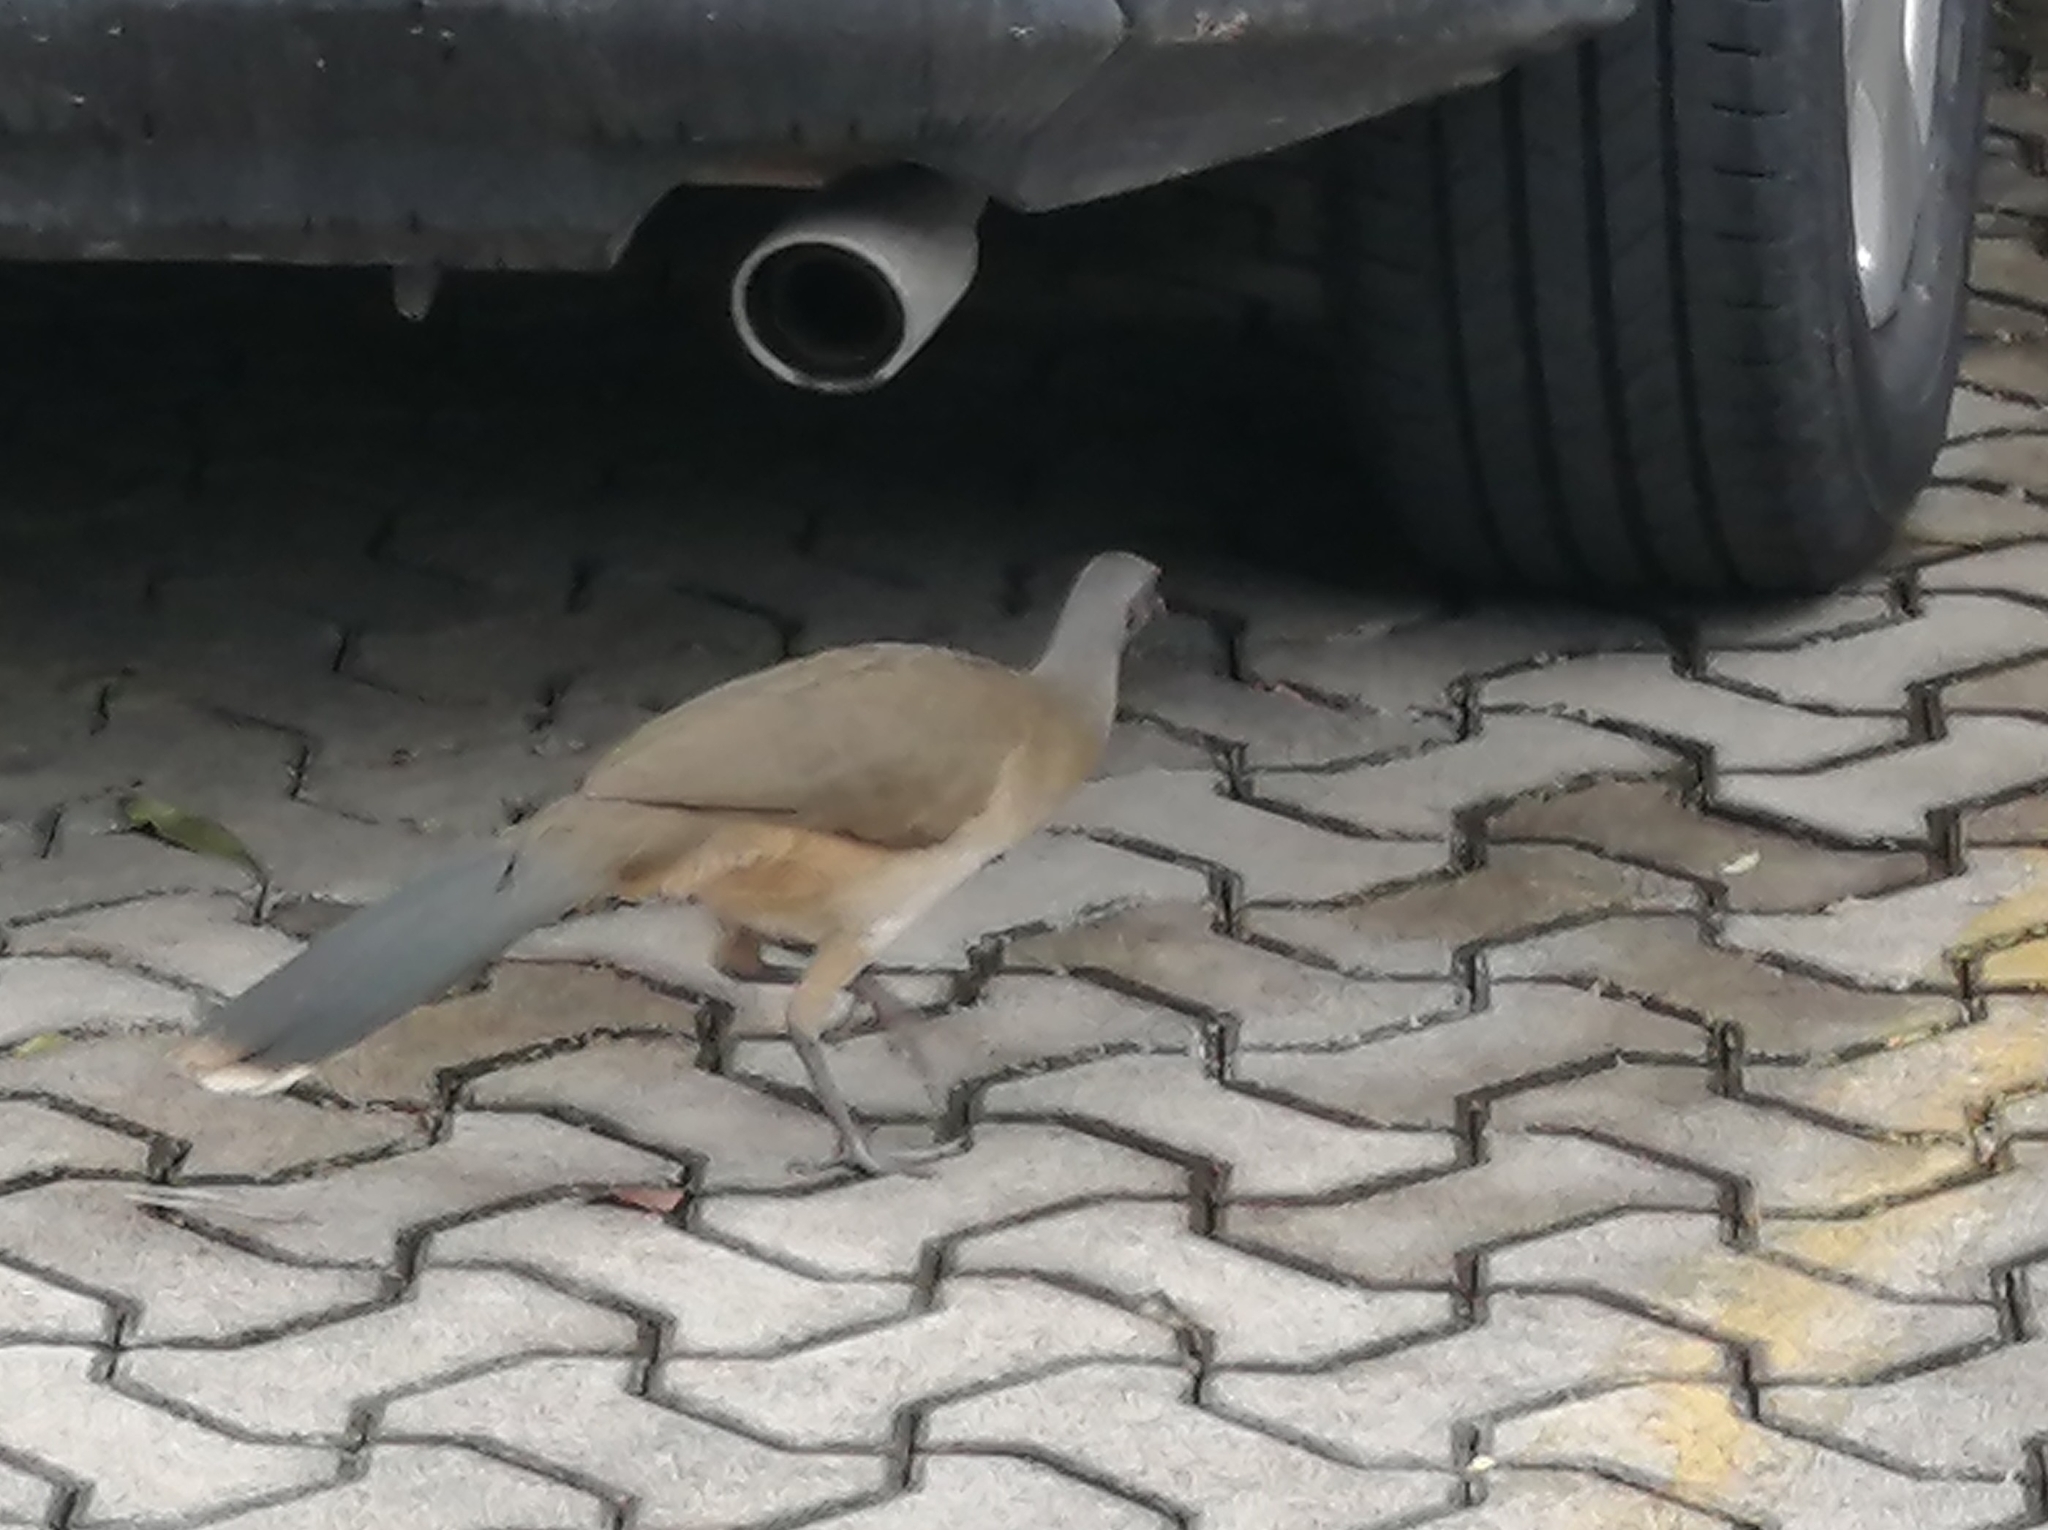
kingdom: Animalia
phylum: Chordata
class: Aves
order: Galliformes
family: Cracidae
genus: Ortalis
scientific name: Ortalis vetula
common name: Plain chachalaca
